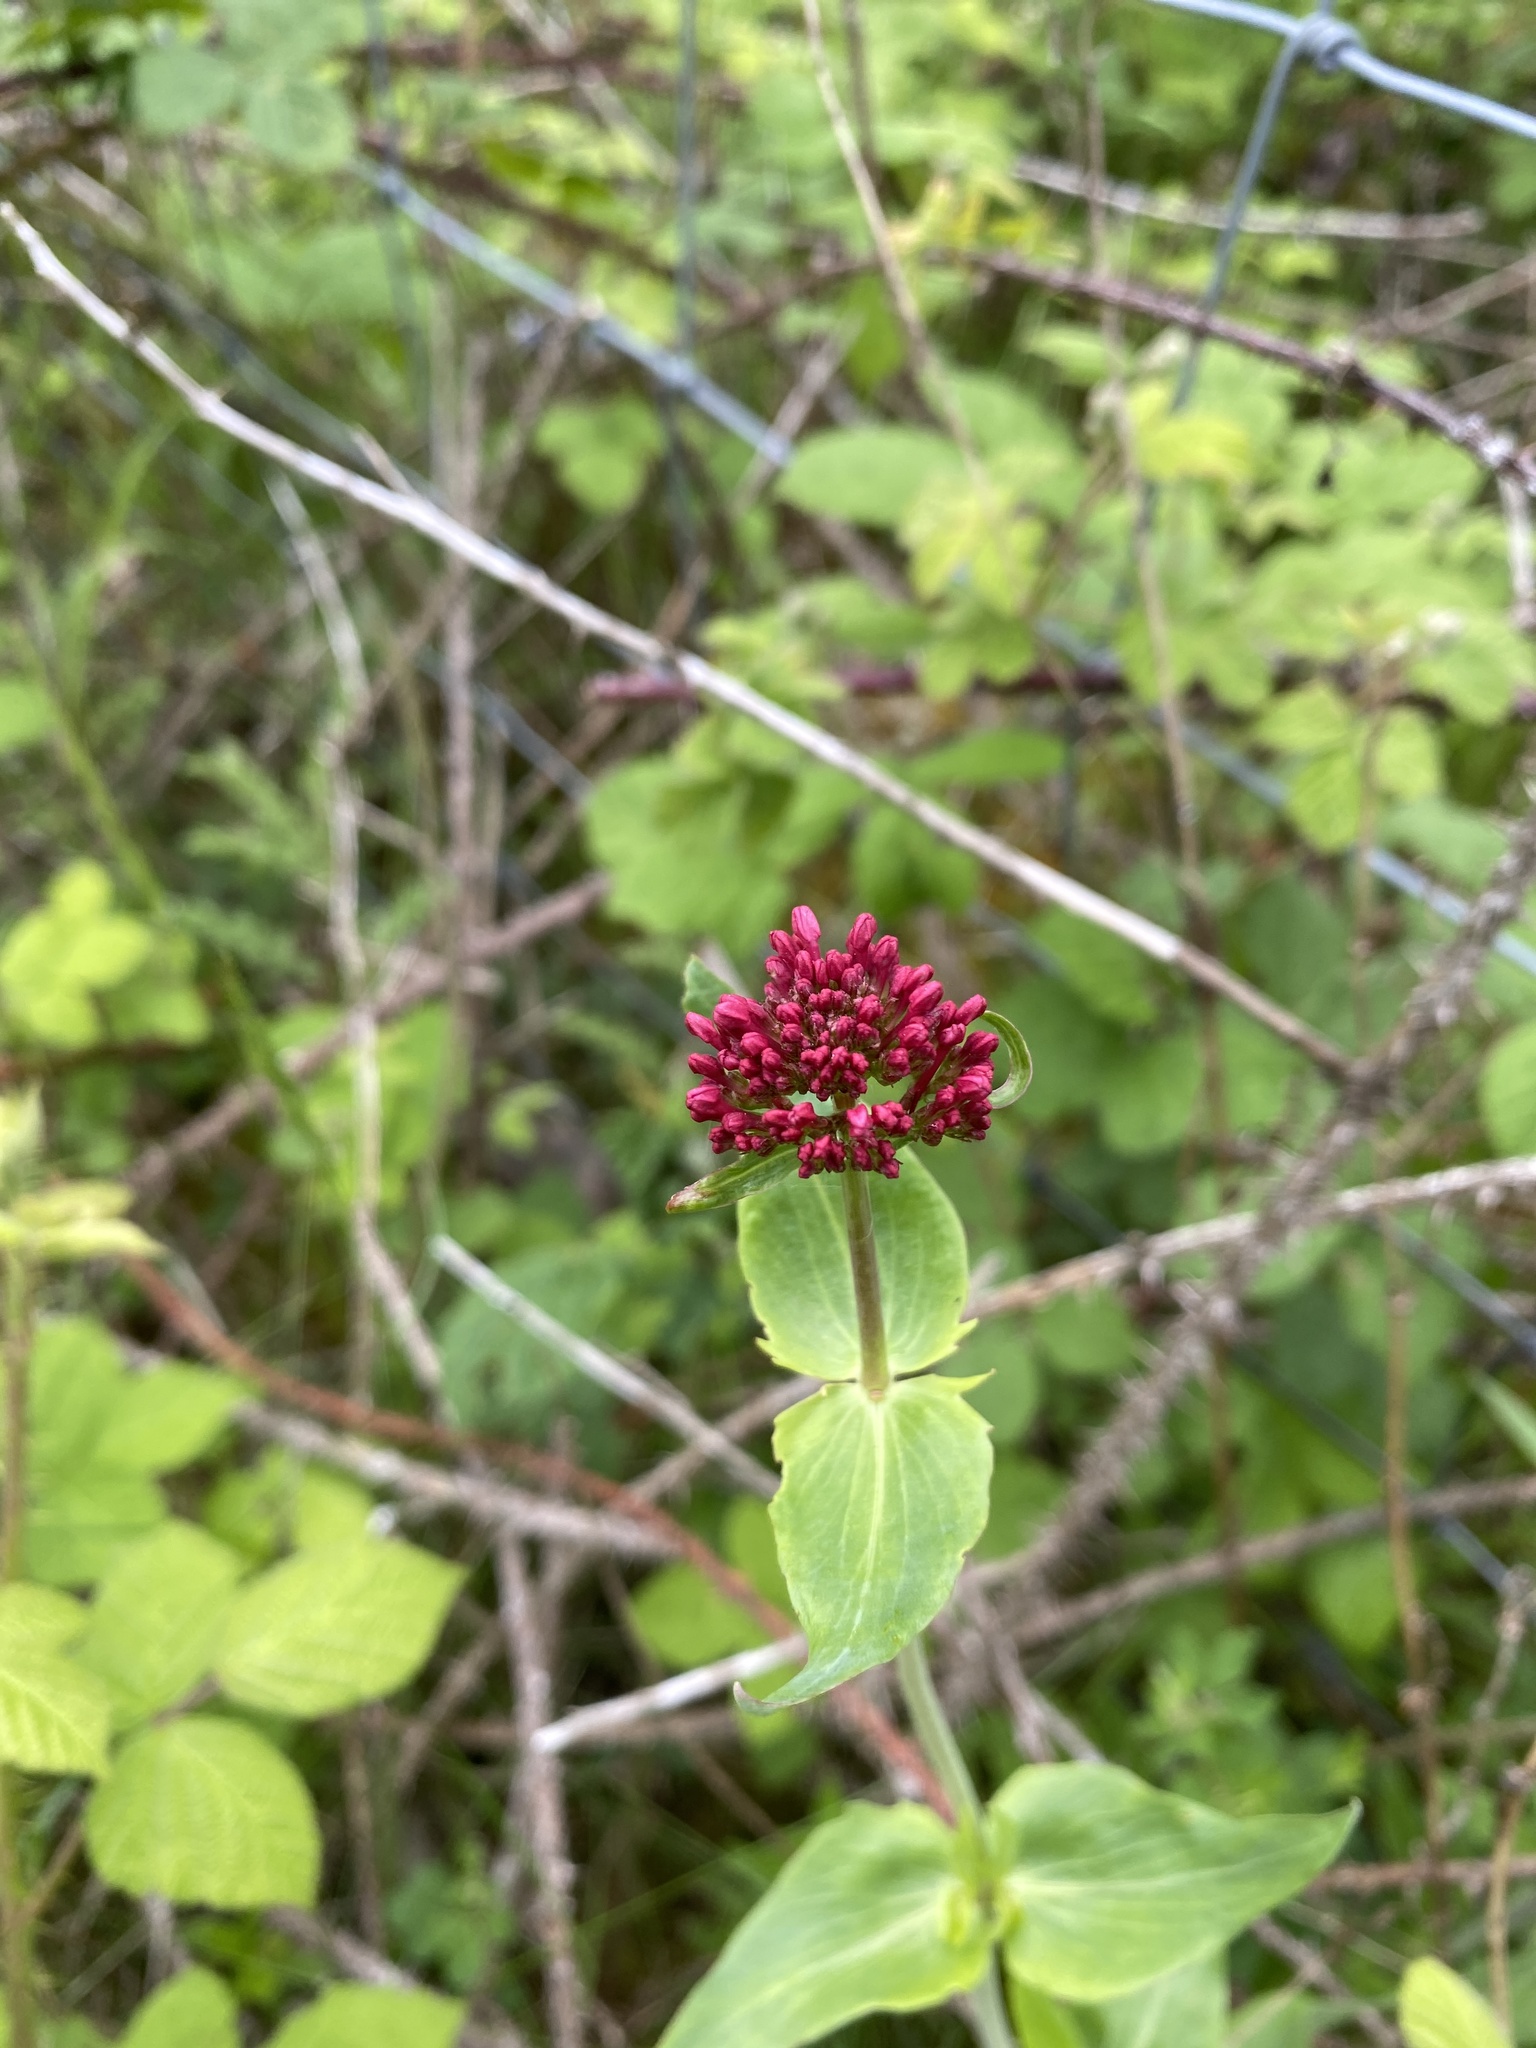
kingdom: Plantae
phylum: Tracheophyta
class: Magnoliopsida
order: Dipsacales
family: Caprifoliaceae
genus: Centranthus
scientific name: Centranthus ruber
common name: Red valerian
